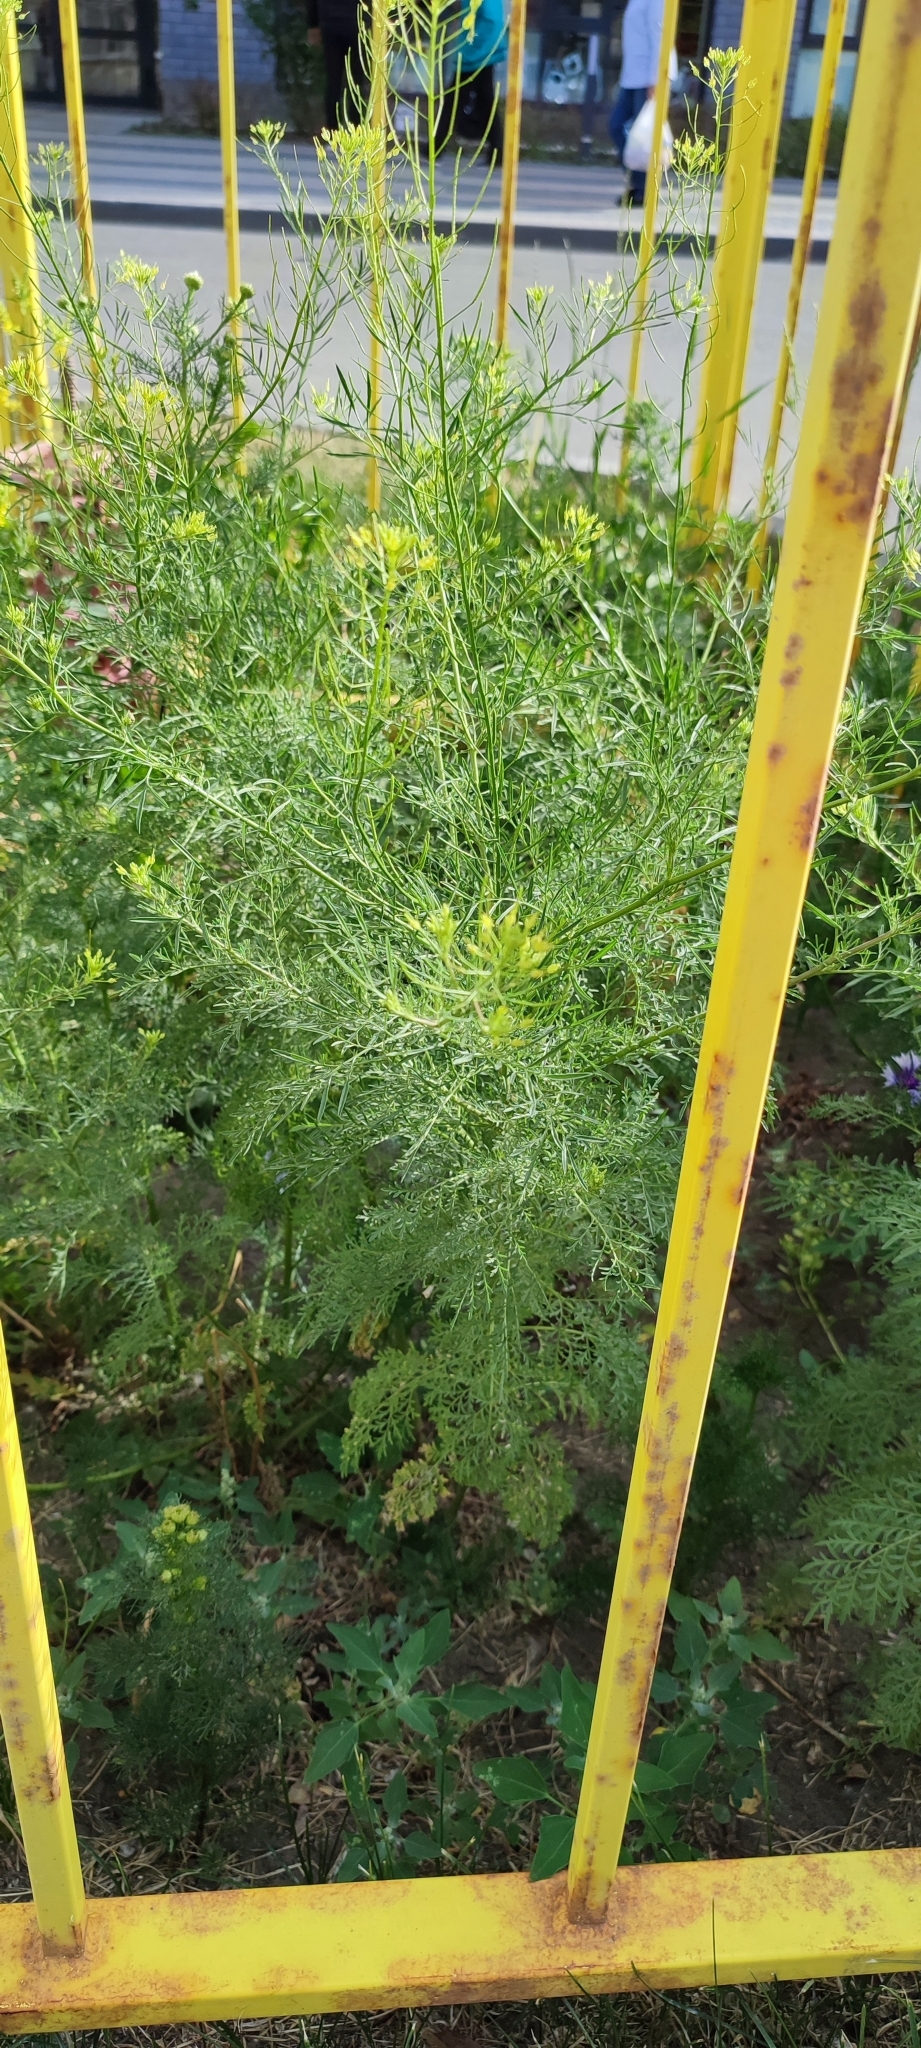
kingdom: Plantae
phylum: Tracheophyta
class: Magnoliopsida
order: Brassicales
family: Brassicaceae
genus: Descurainia
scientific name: Descurainia sophia
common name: Flixweed
